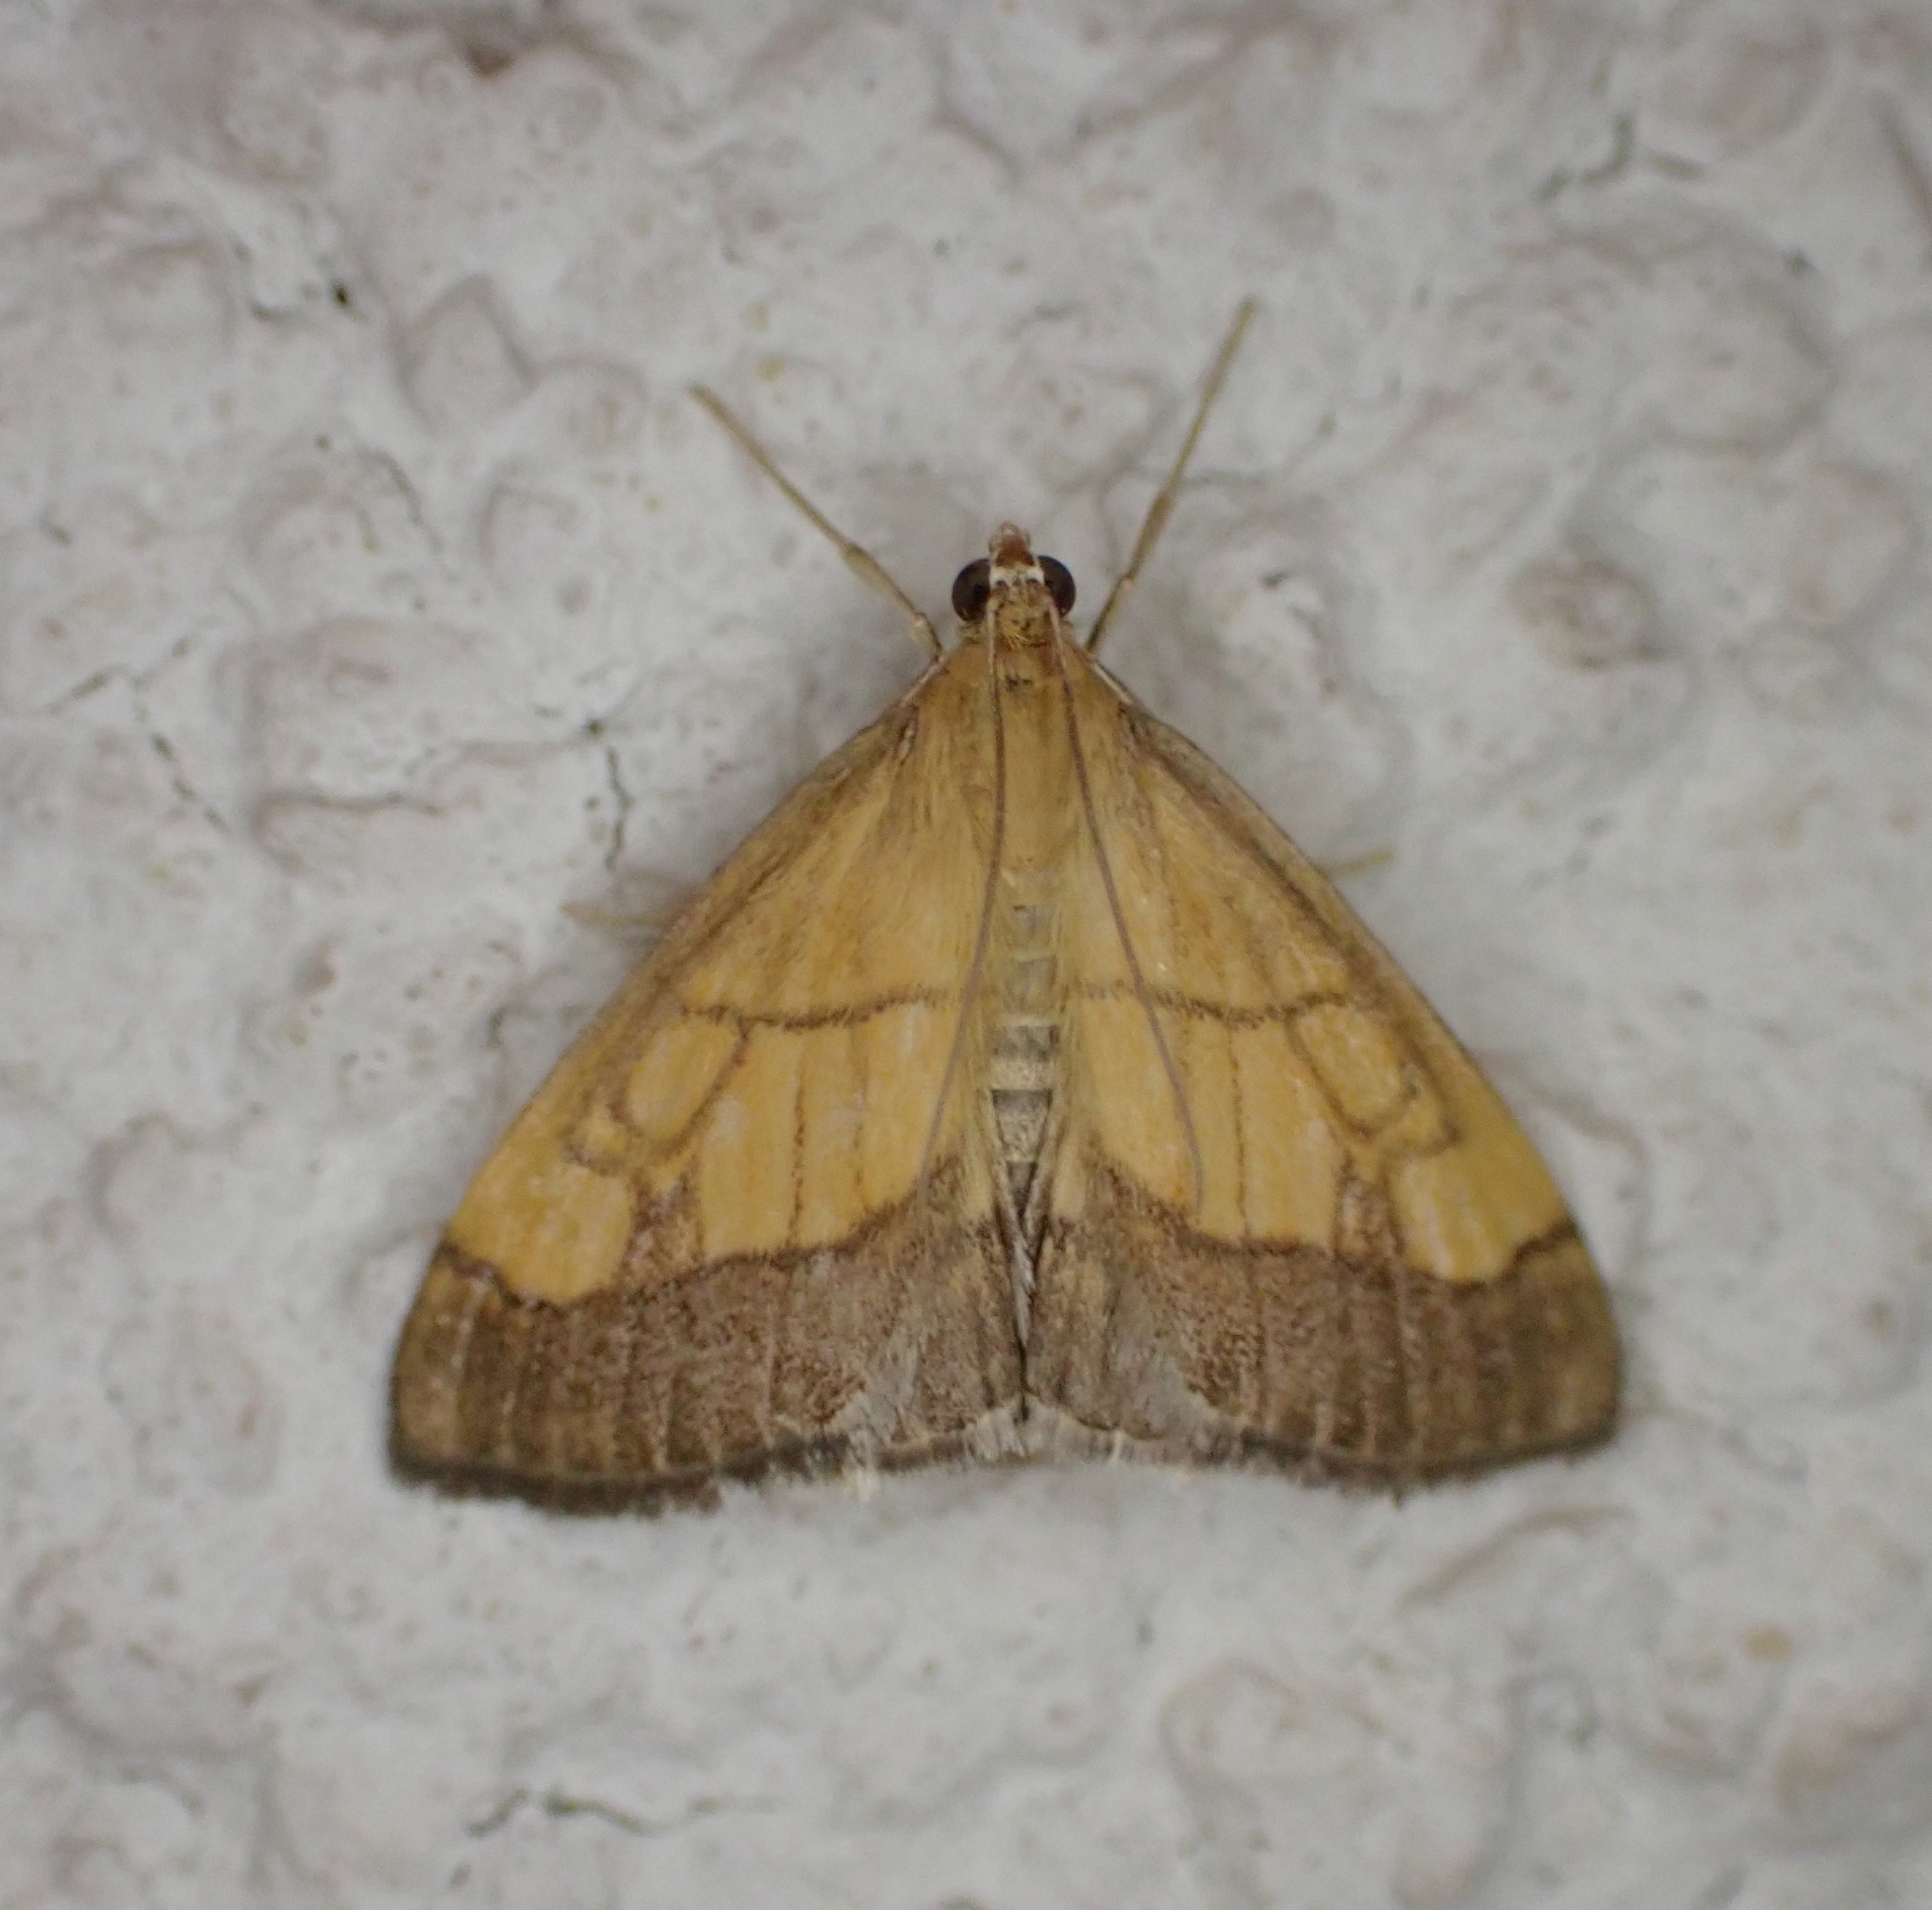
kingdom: Animalia
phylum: Arthropoda
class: Insecta
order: Lepidoptera
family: Crambidae
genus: Evergestis
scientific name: Evergestis limbata
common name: Dark bordered pearl
